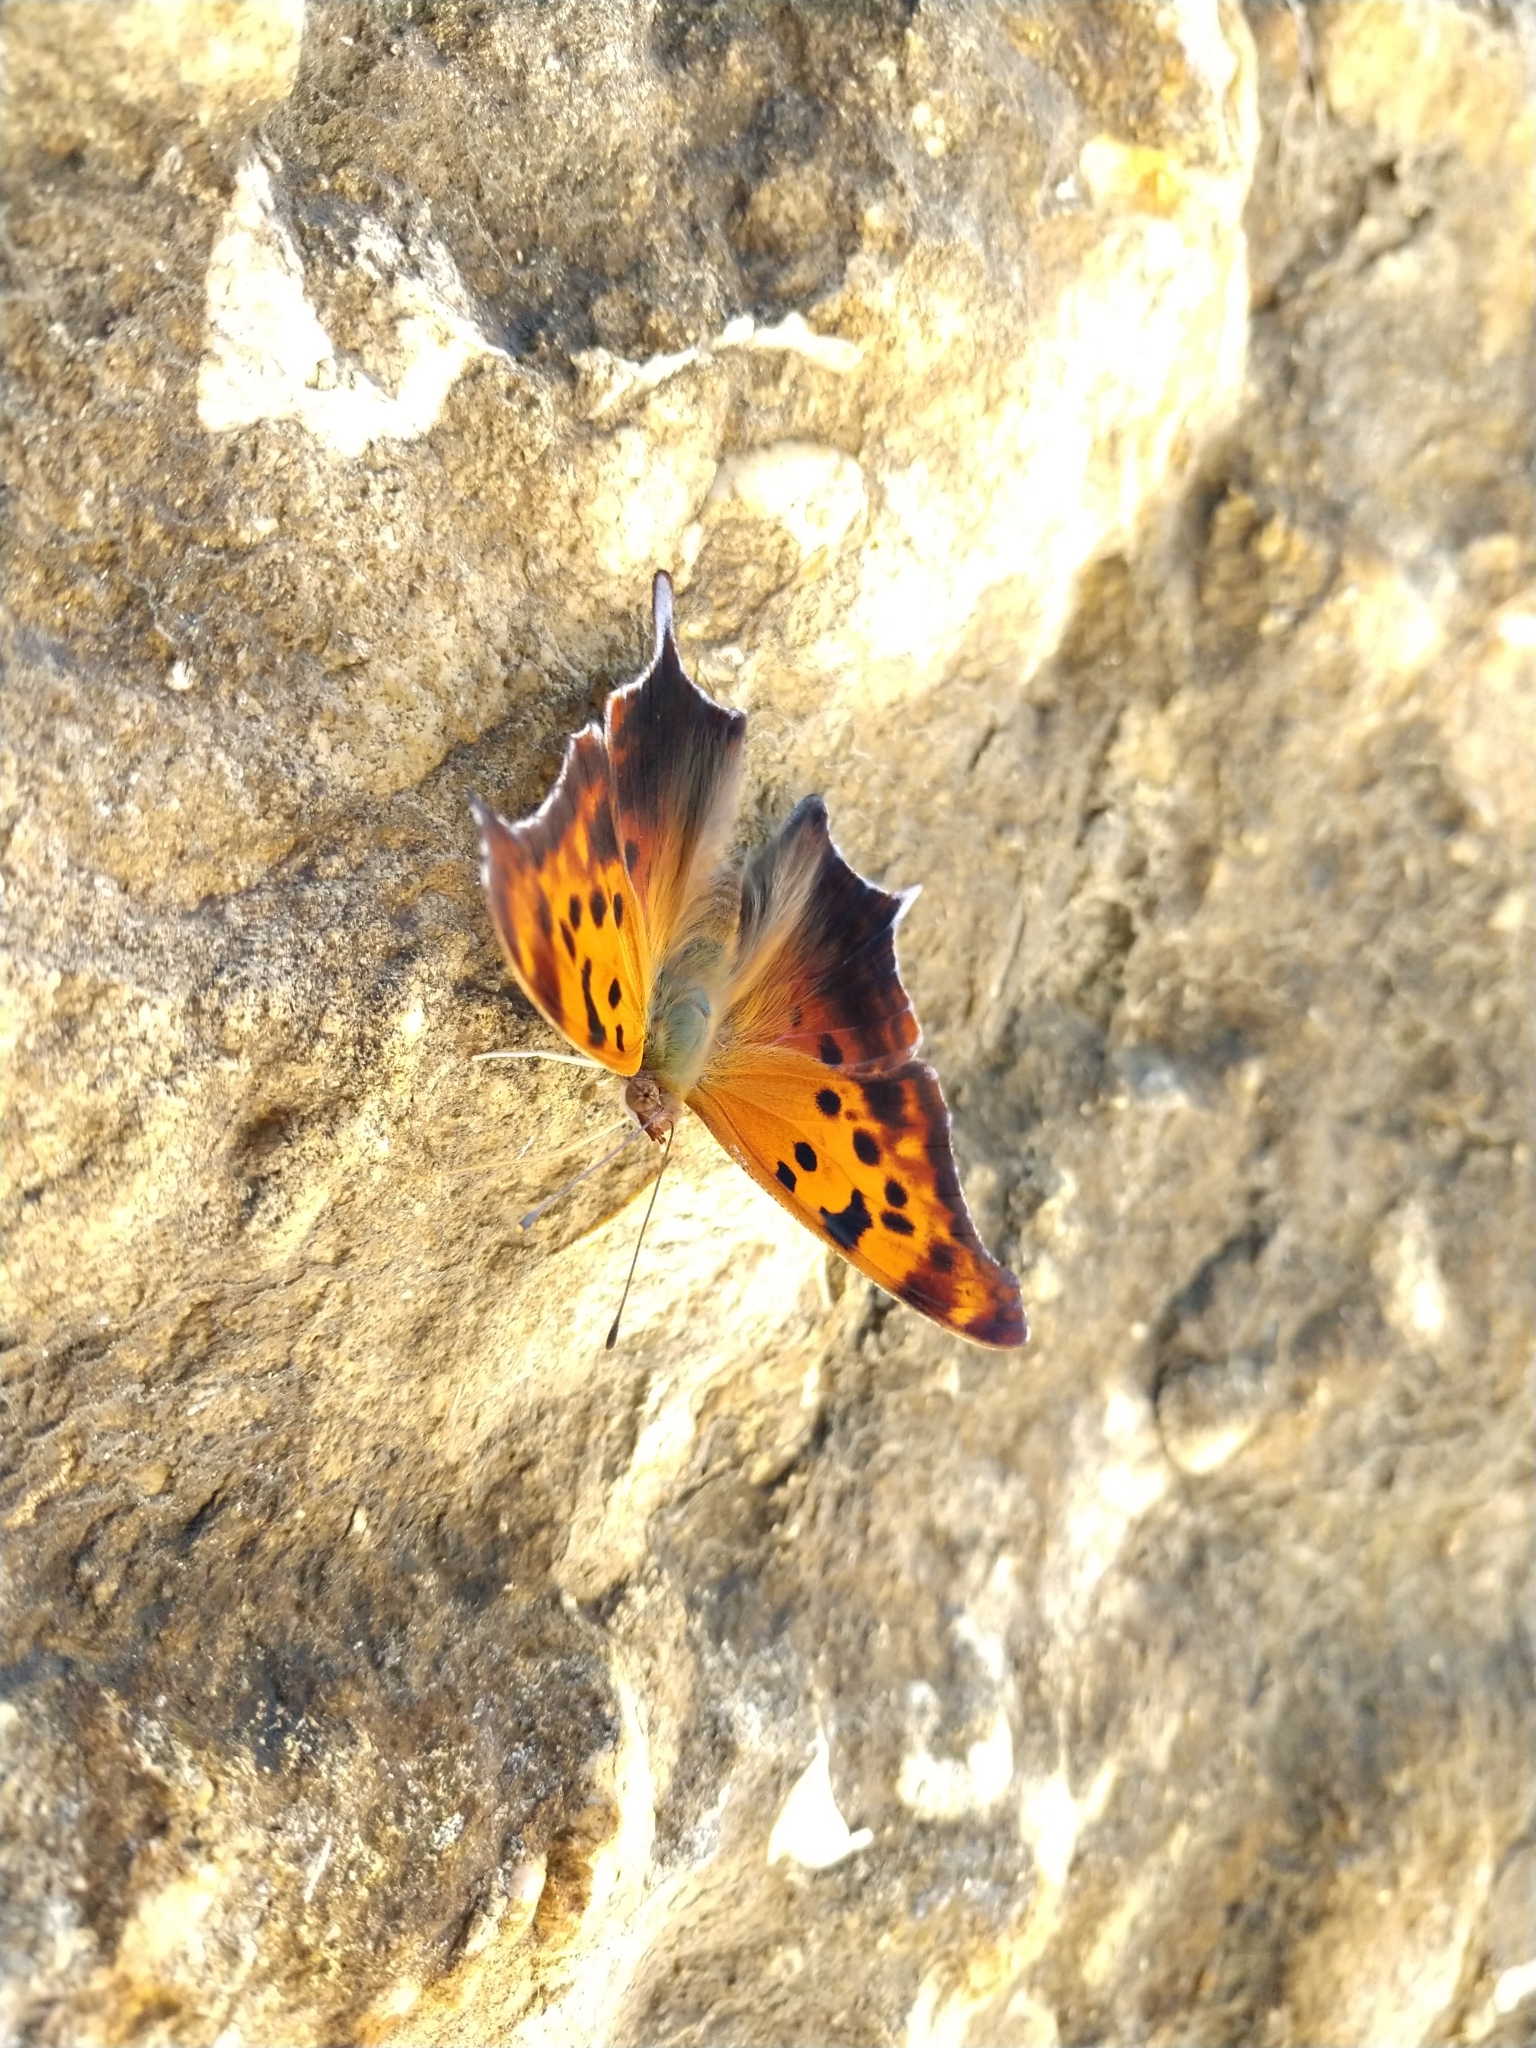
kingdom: Animalia
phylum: Arthropoda
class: Insecta
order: Lepidoptera
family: Nymphalidae
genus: Polygonia
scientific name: Polygonia interrogationis
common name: Question mark
